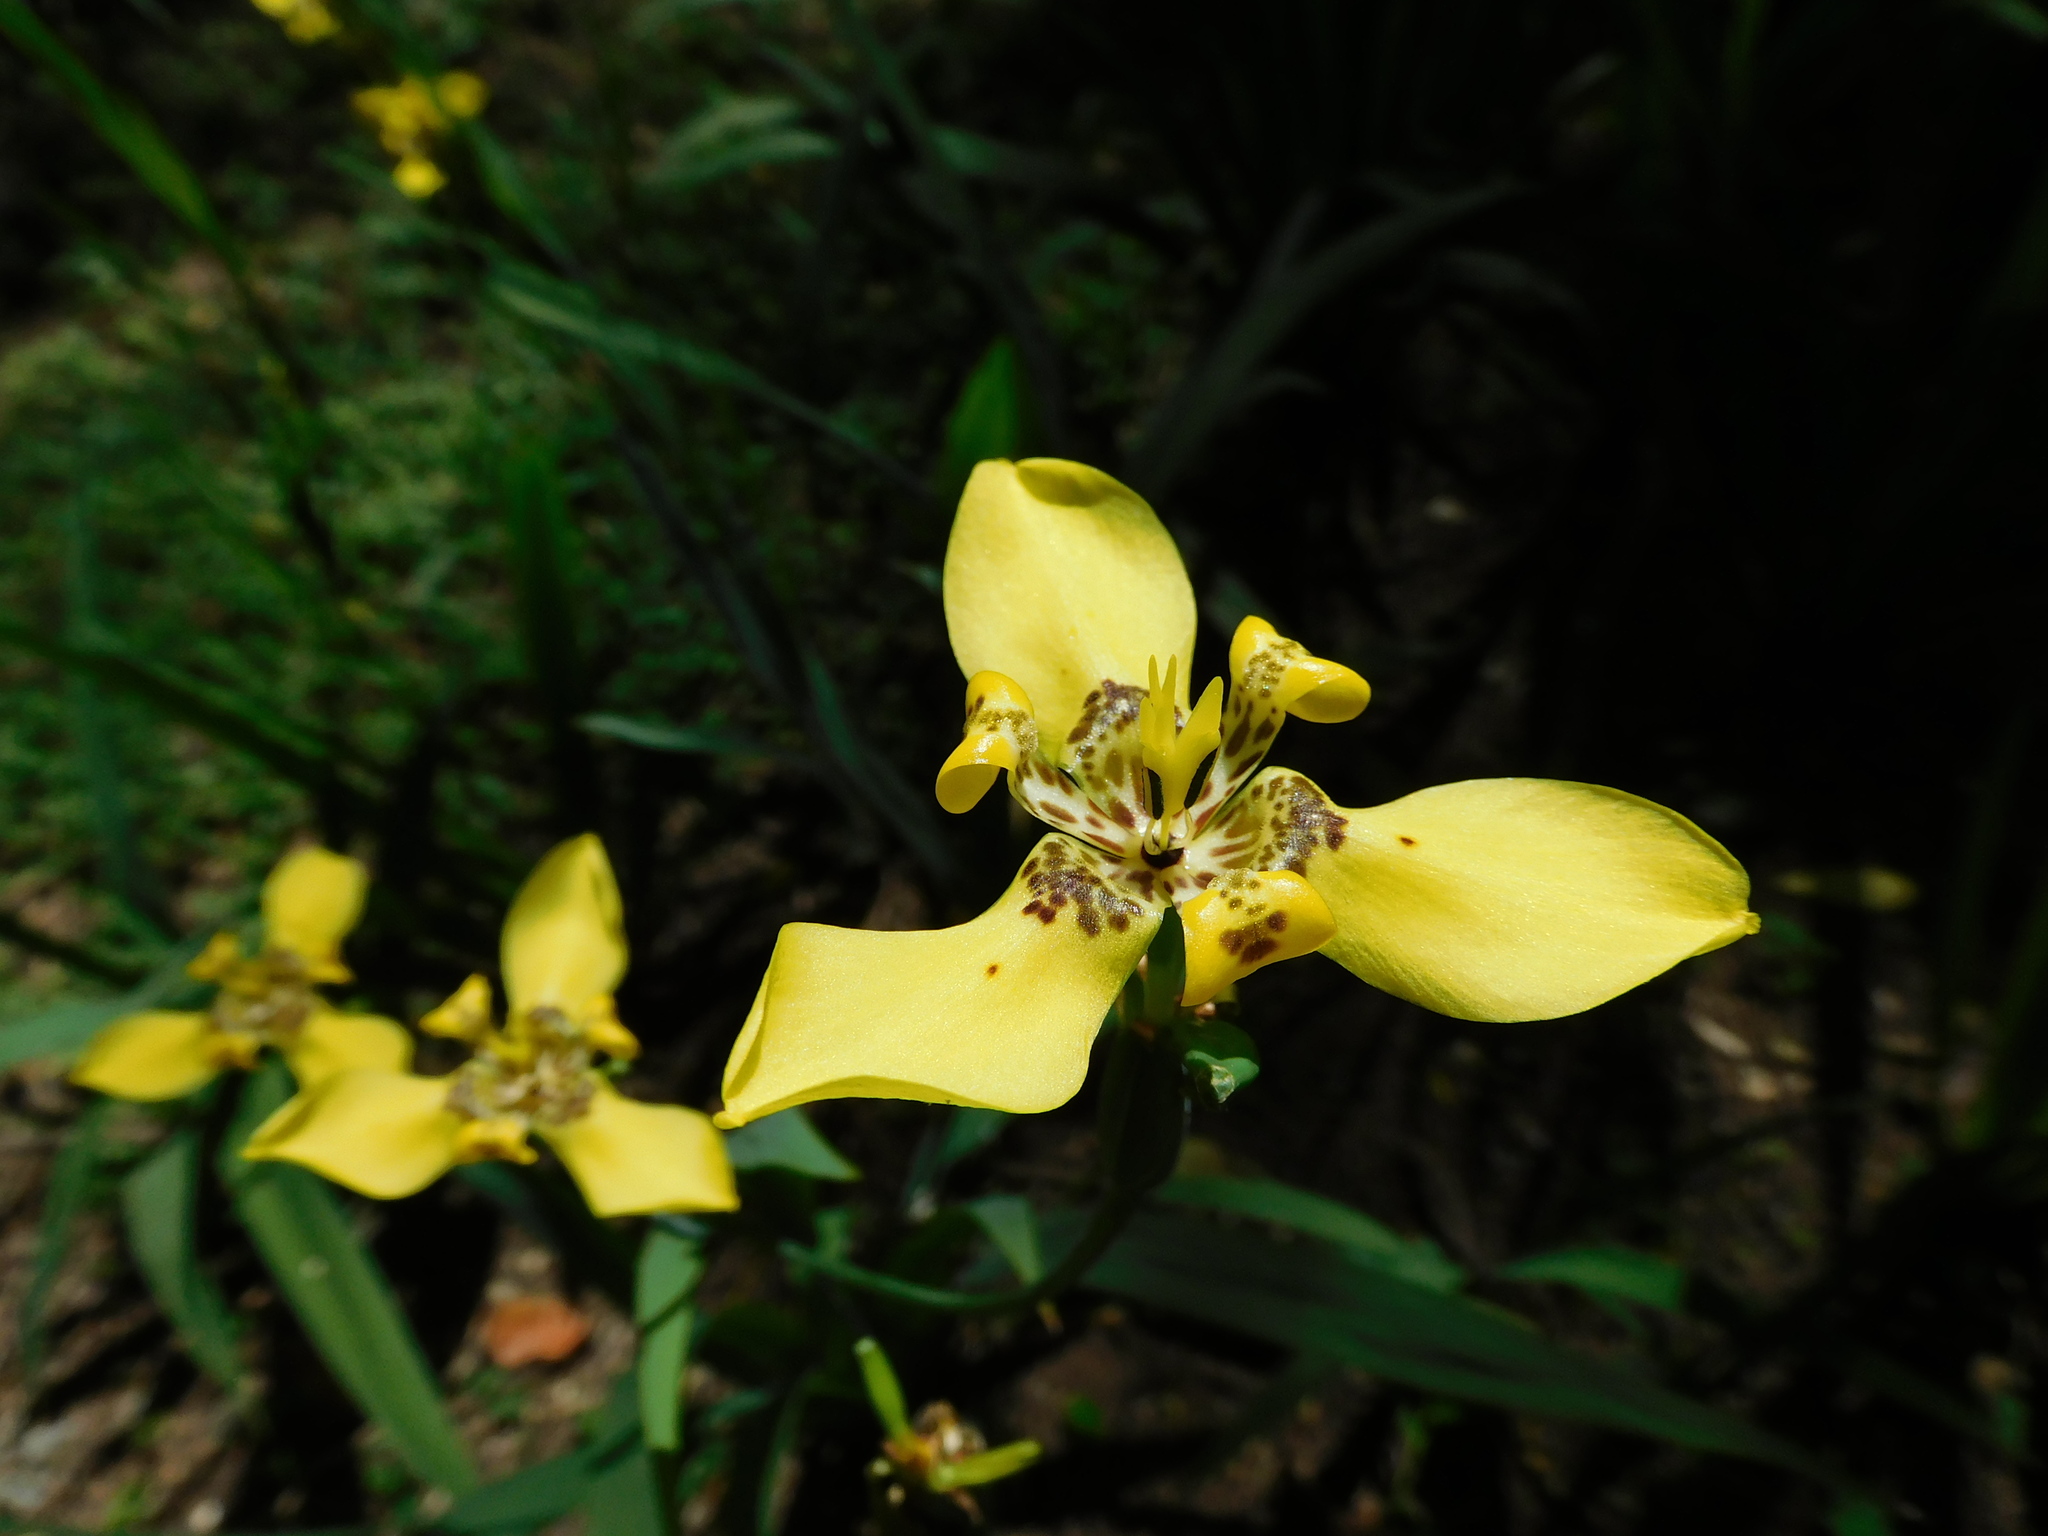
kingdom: Plantae
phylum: Tracheophyta
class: Liliopsida
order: Asparagales
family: Iridaceae
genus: Trimezia
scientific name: Trimezia steyermarkii
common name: Trimezia
